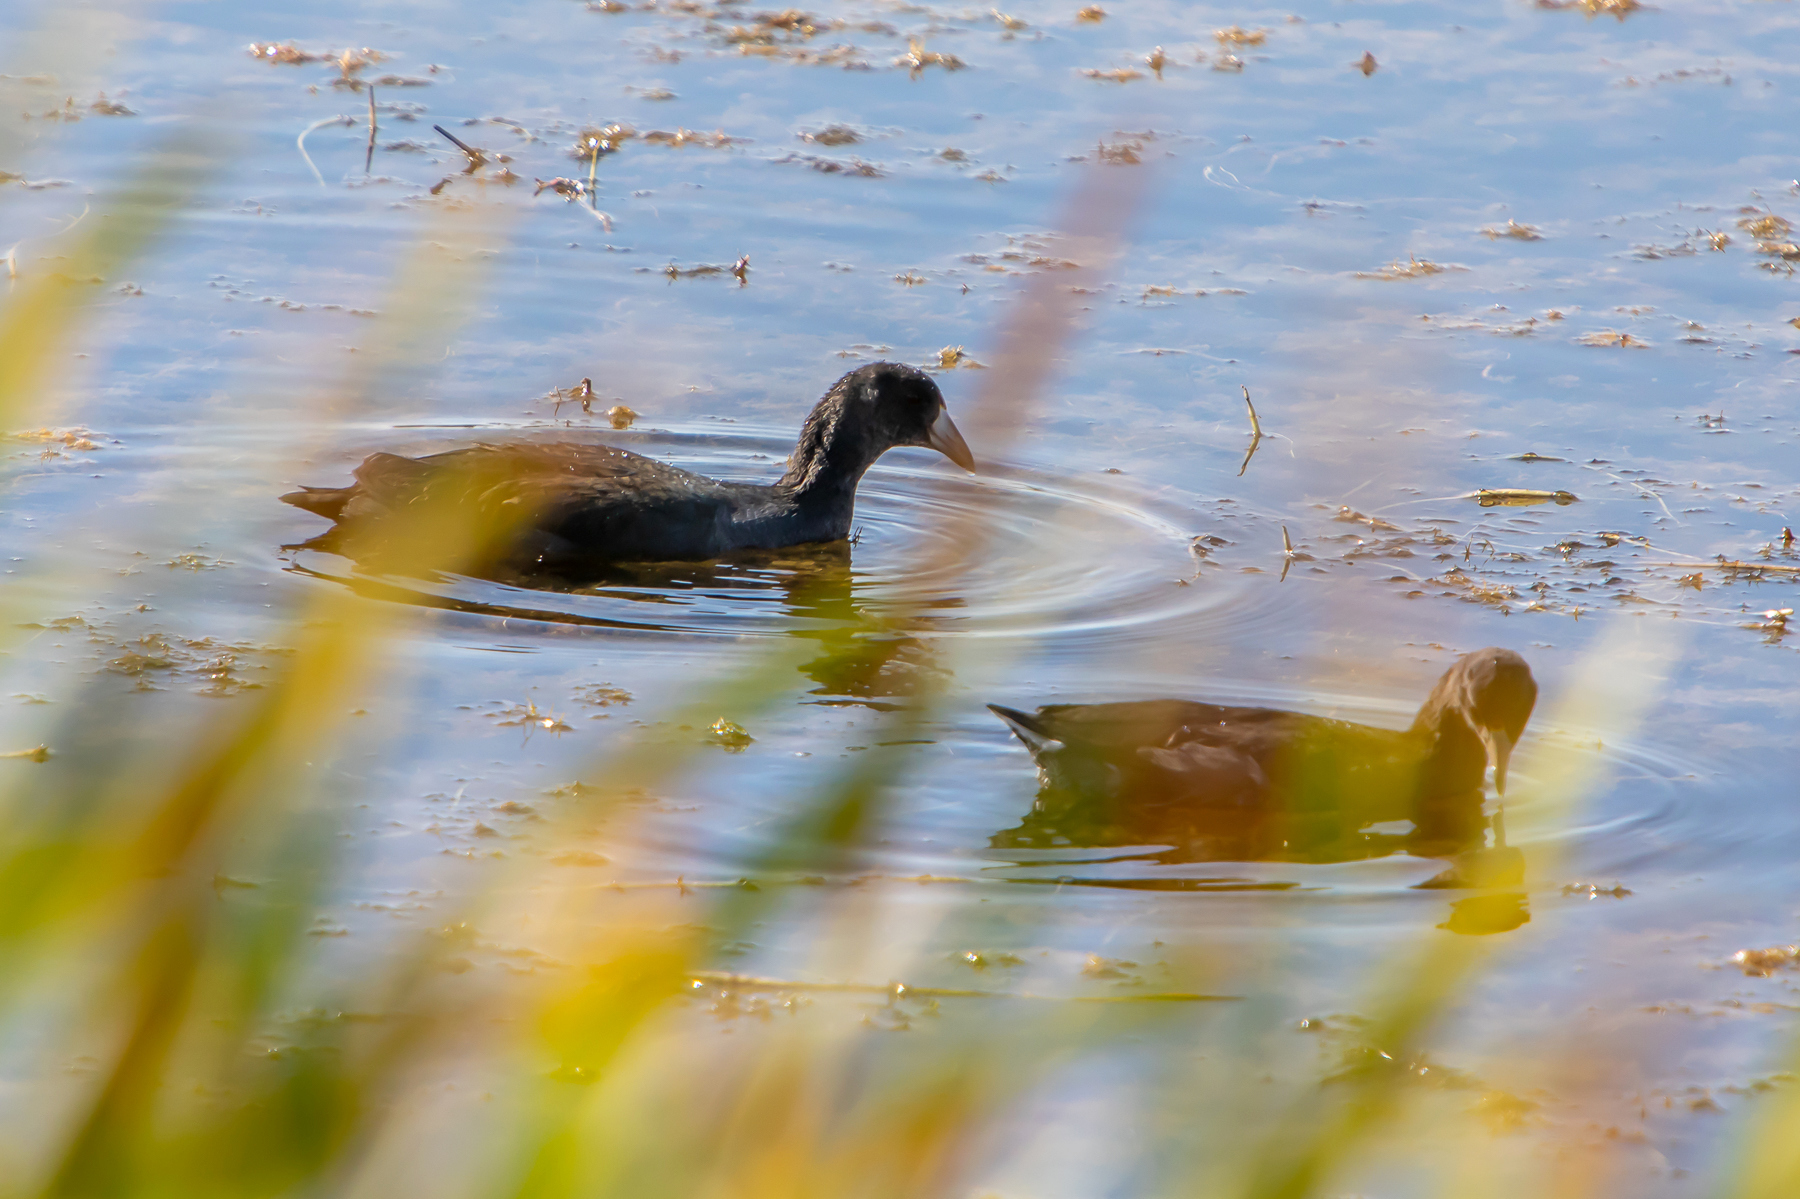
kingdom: Animalia
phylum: Chordata
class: Aves
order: Gruiformes
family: Rallidae
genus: Fulica
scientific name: Fulica americana
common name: American coot
